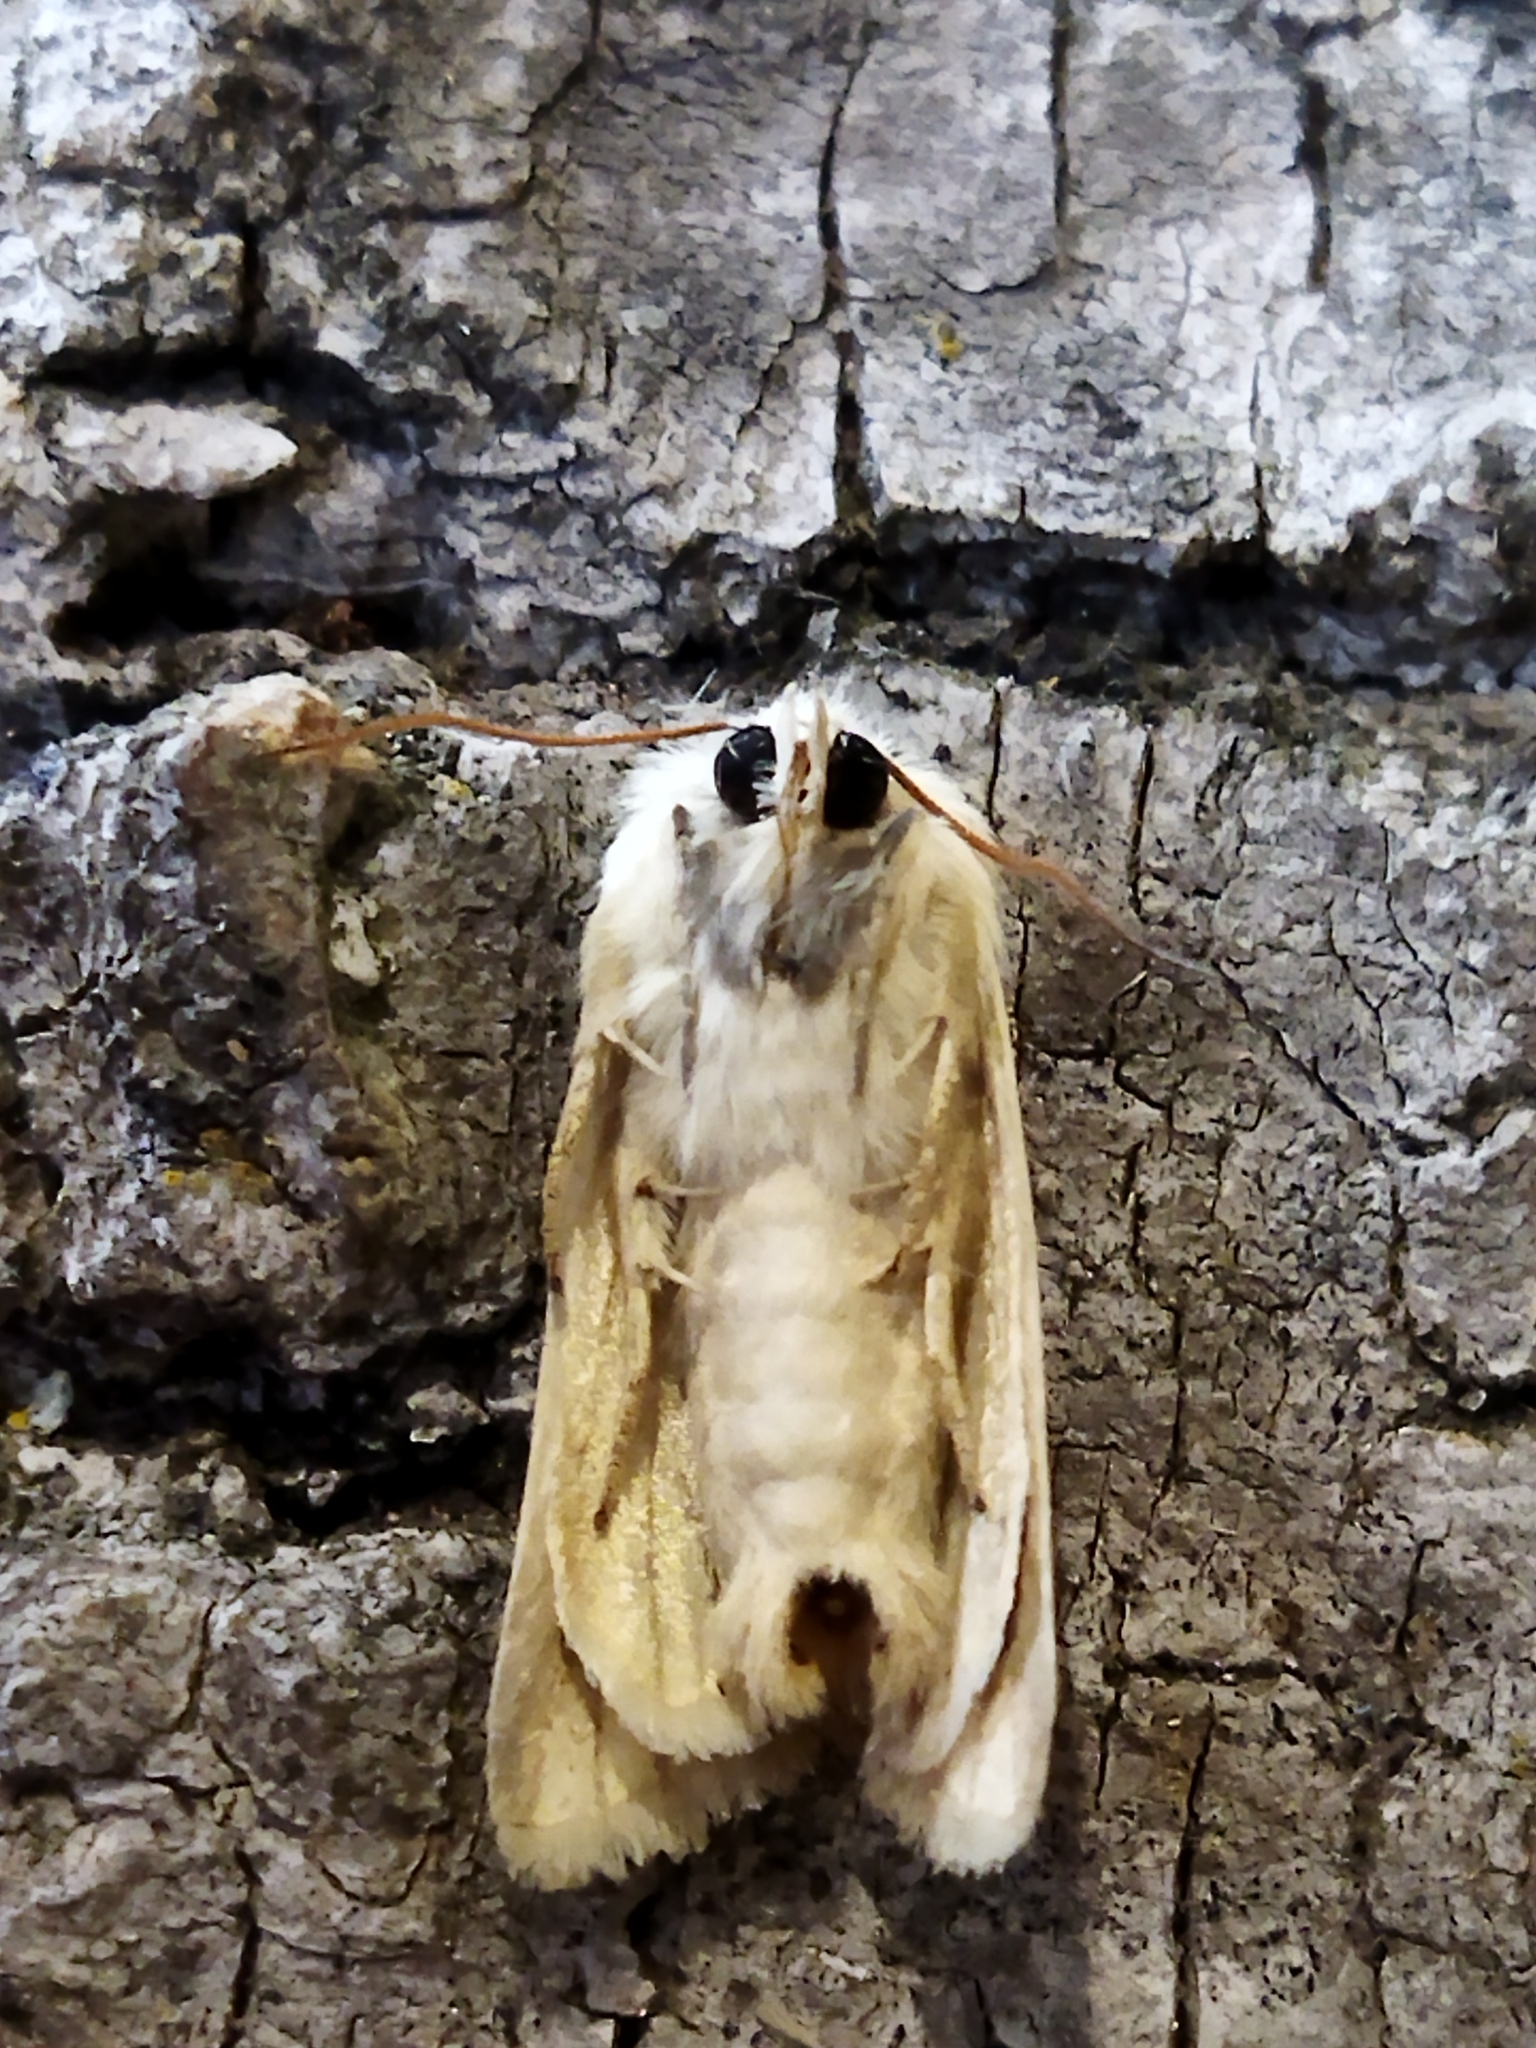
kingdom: Animalia
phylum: Arthropoda
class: Insecta
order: Lepidoptera
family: Noctuidae
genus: Oria
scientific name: Oria musculosa
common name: Brighton wainscot
